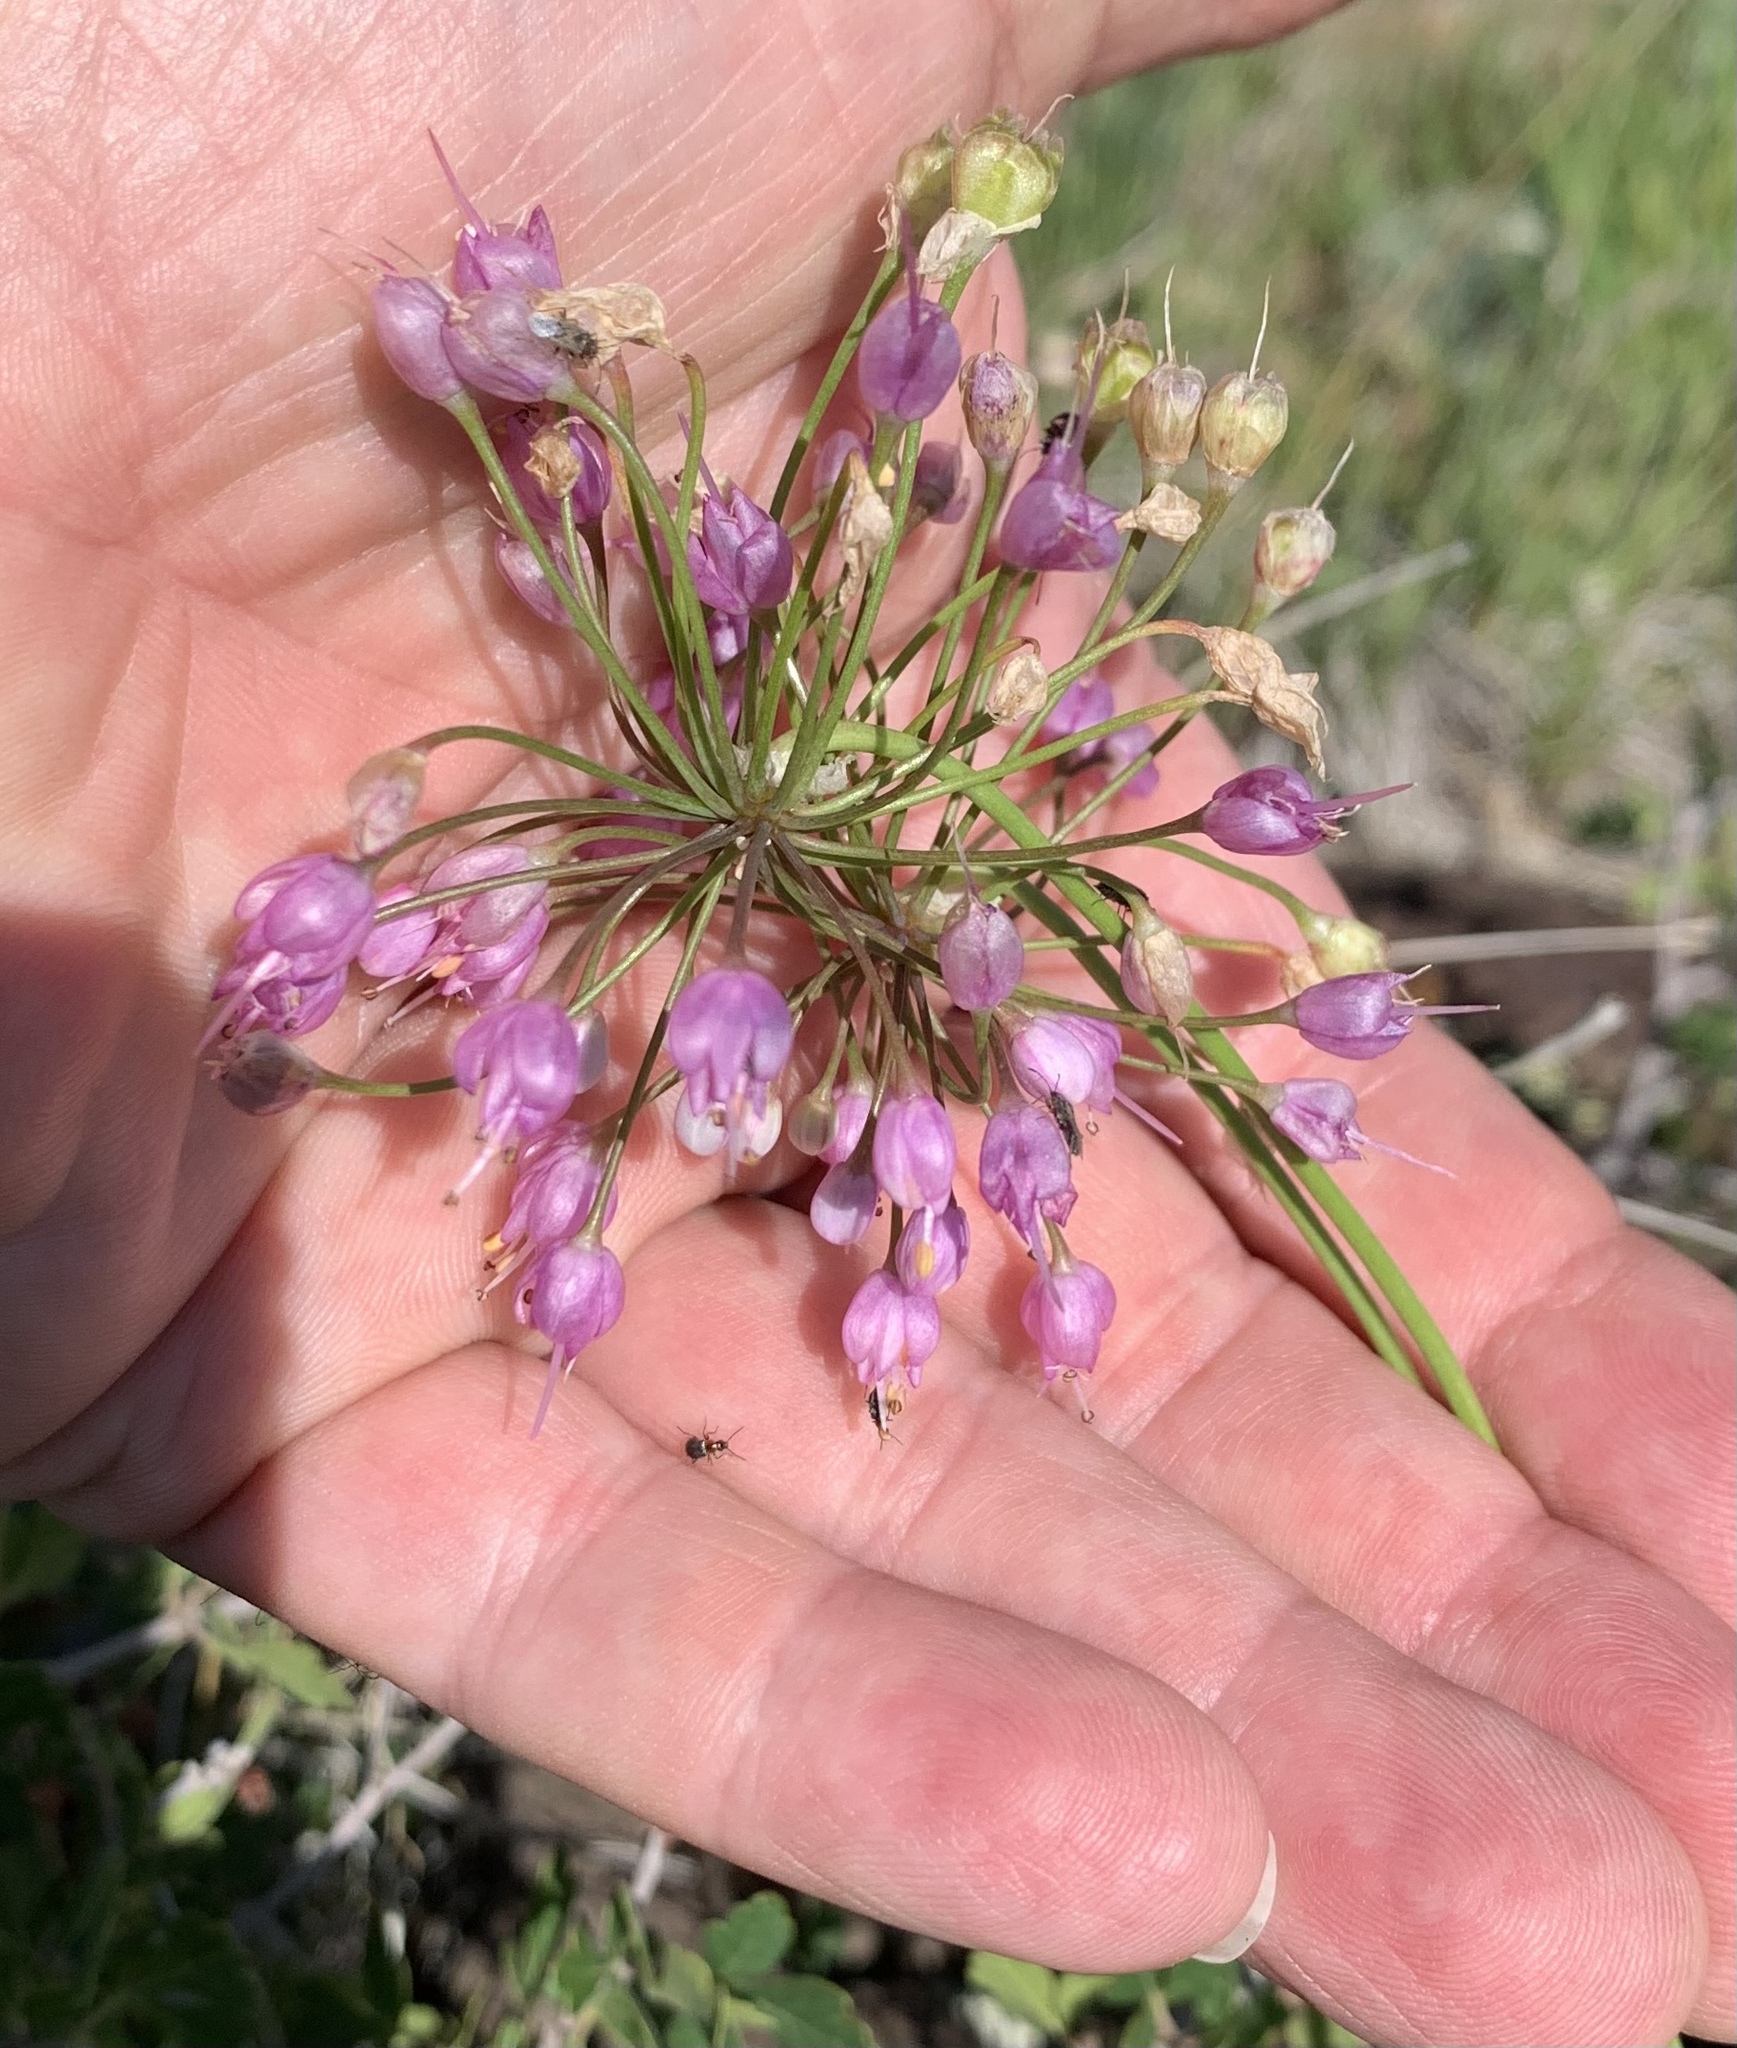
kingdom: Plantae
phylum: Tracheophyta
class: Liliopsida
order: Asparagales
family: Amaryllidaceae
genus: Allium
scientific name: Allium cernuum
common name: Nodding onion
